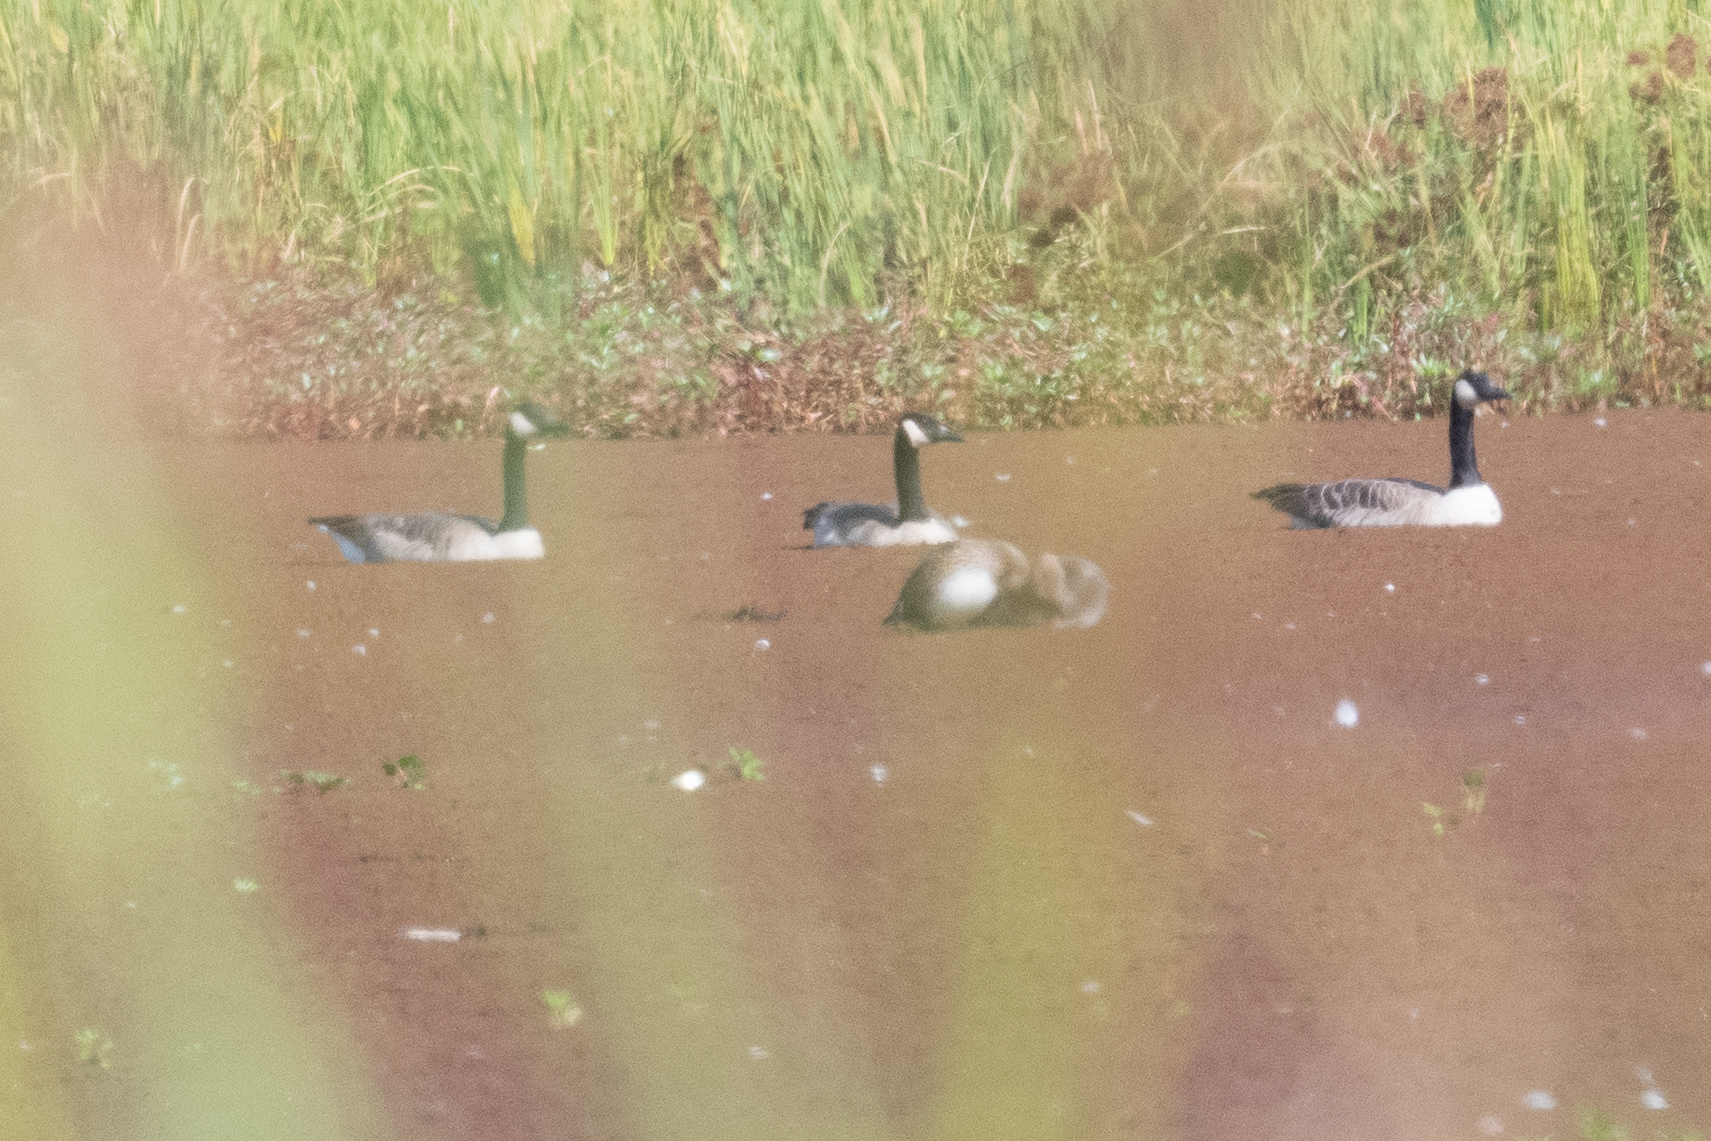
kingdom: Animalia
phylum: Chordata
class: Aves
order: Anseriformes
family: Anatidae
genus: Branta
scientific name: Branta canadensis
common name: Canada goose
